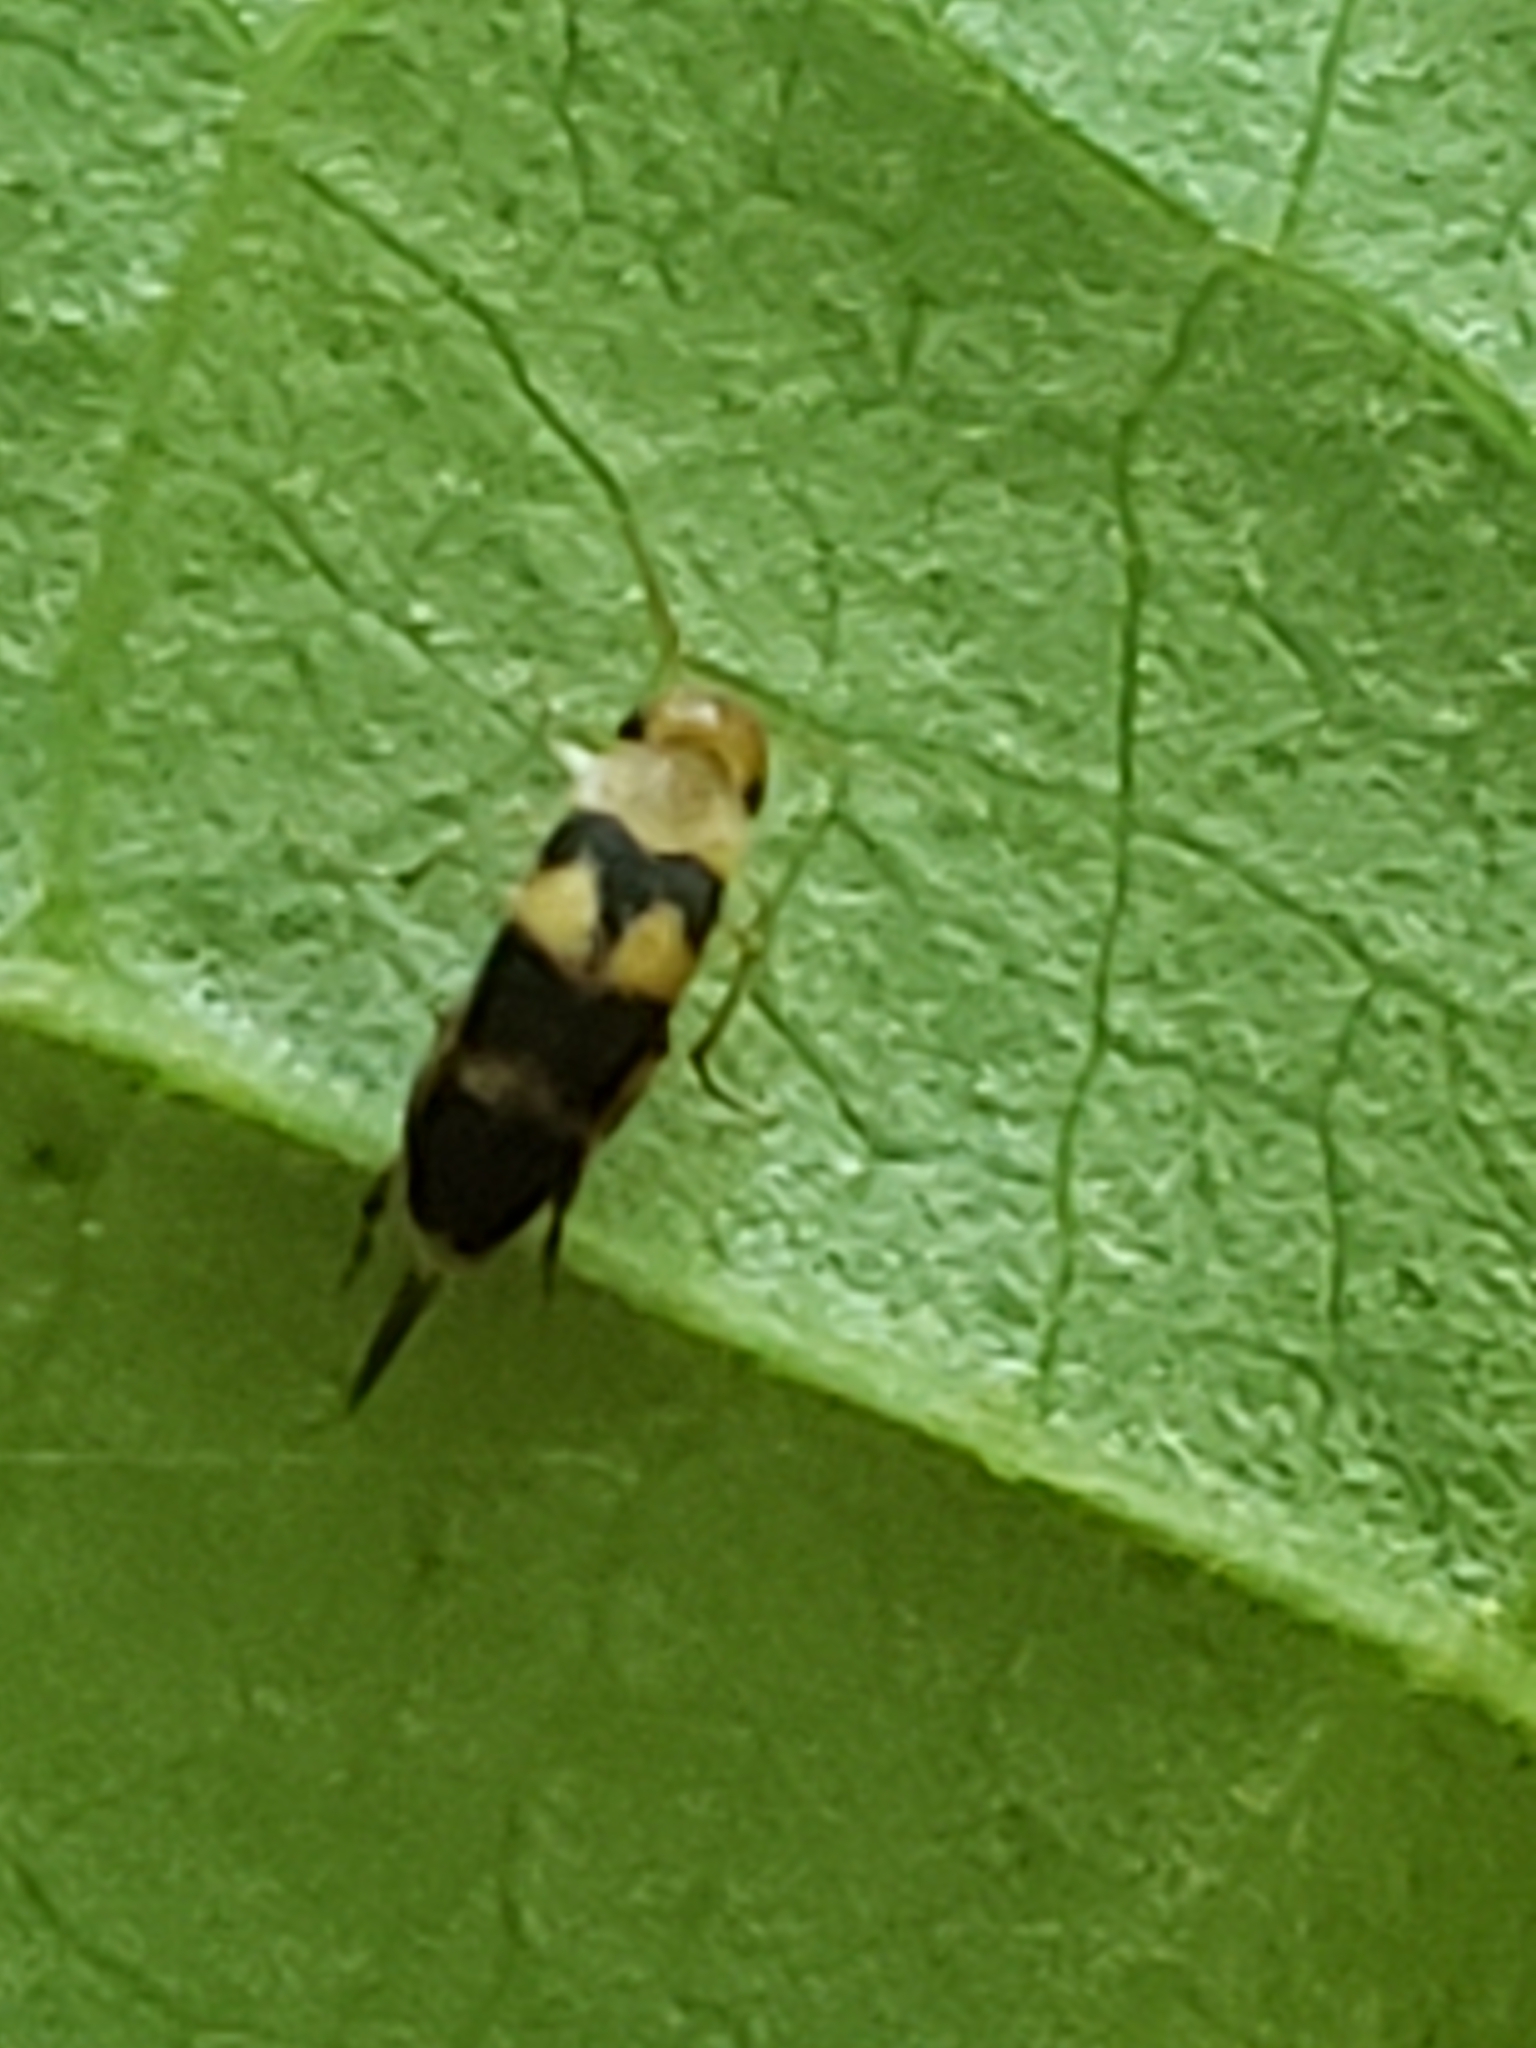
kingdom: Animalia
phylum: Arthropoda
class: Insecta
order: Coleoptera
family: Mordellidae
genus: Mordellistena
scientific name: Mordellistena trifasciata
